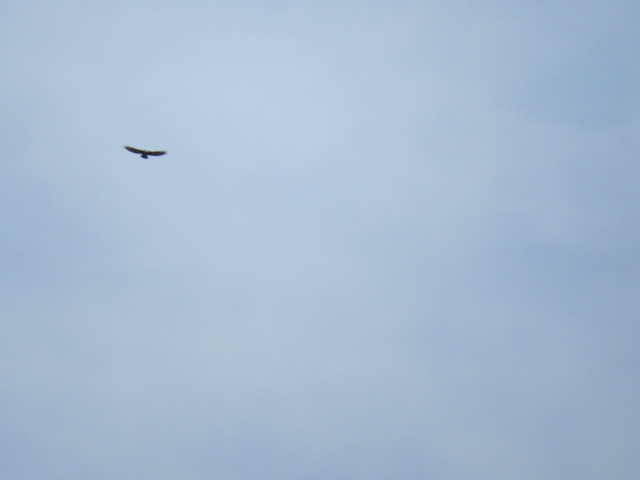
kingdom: Animalia
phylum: Chordata
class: Aves
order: Accipitriformes
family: Accipitridae
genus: Buteo
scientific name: Buteo buteo
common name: Common buzzard
